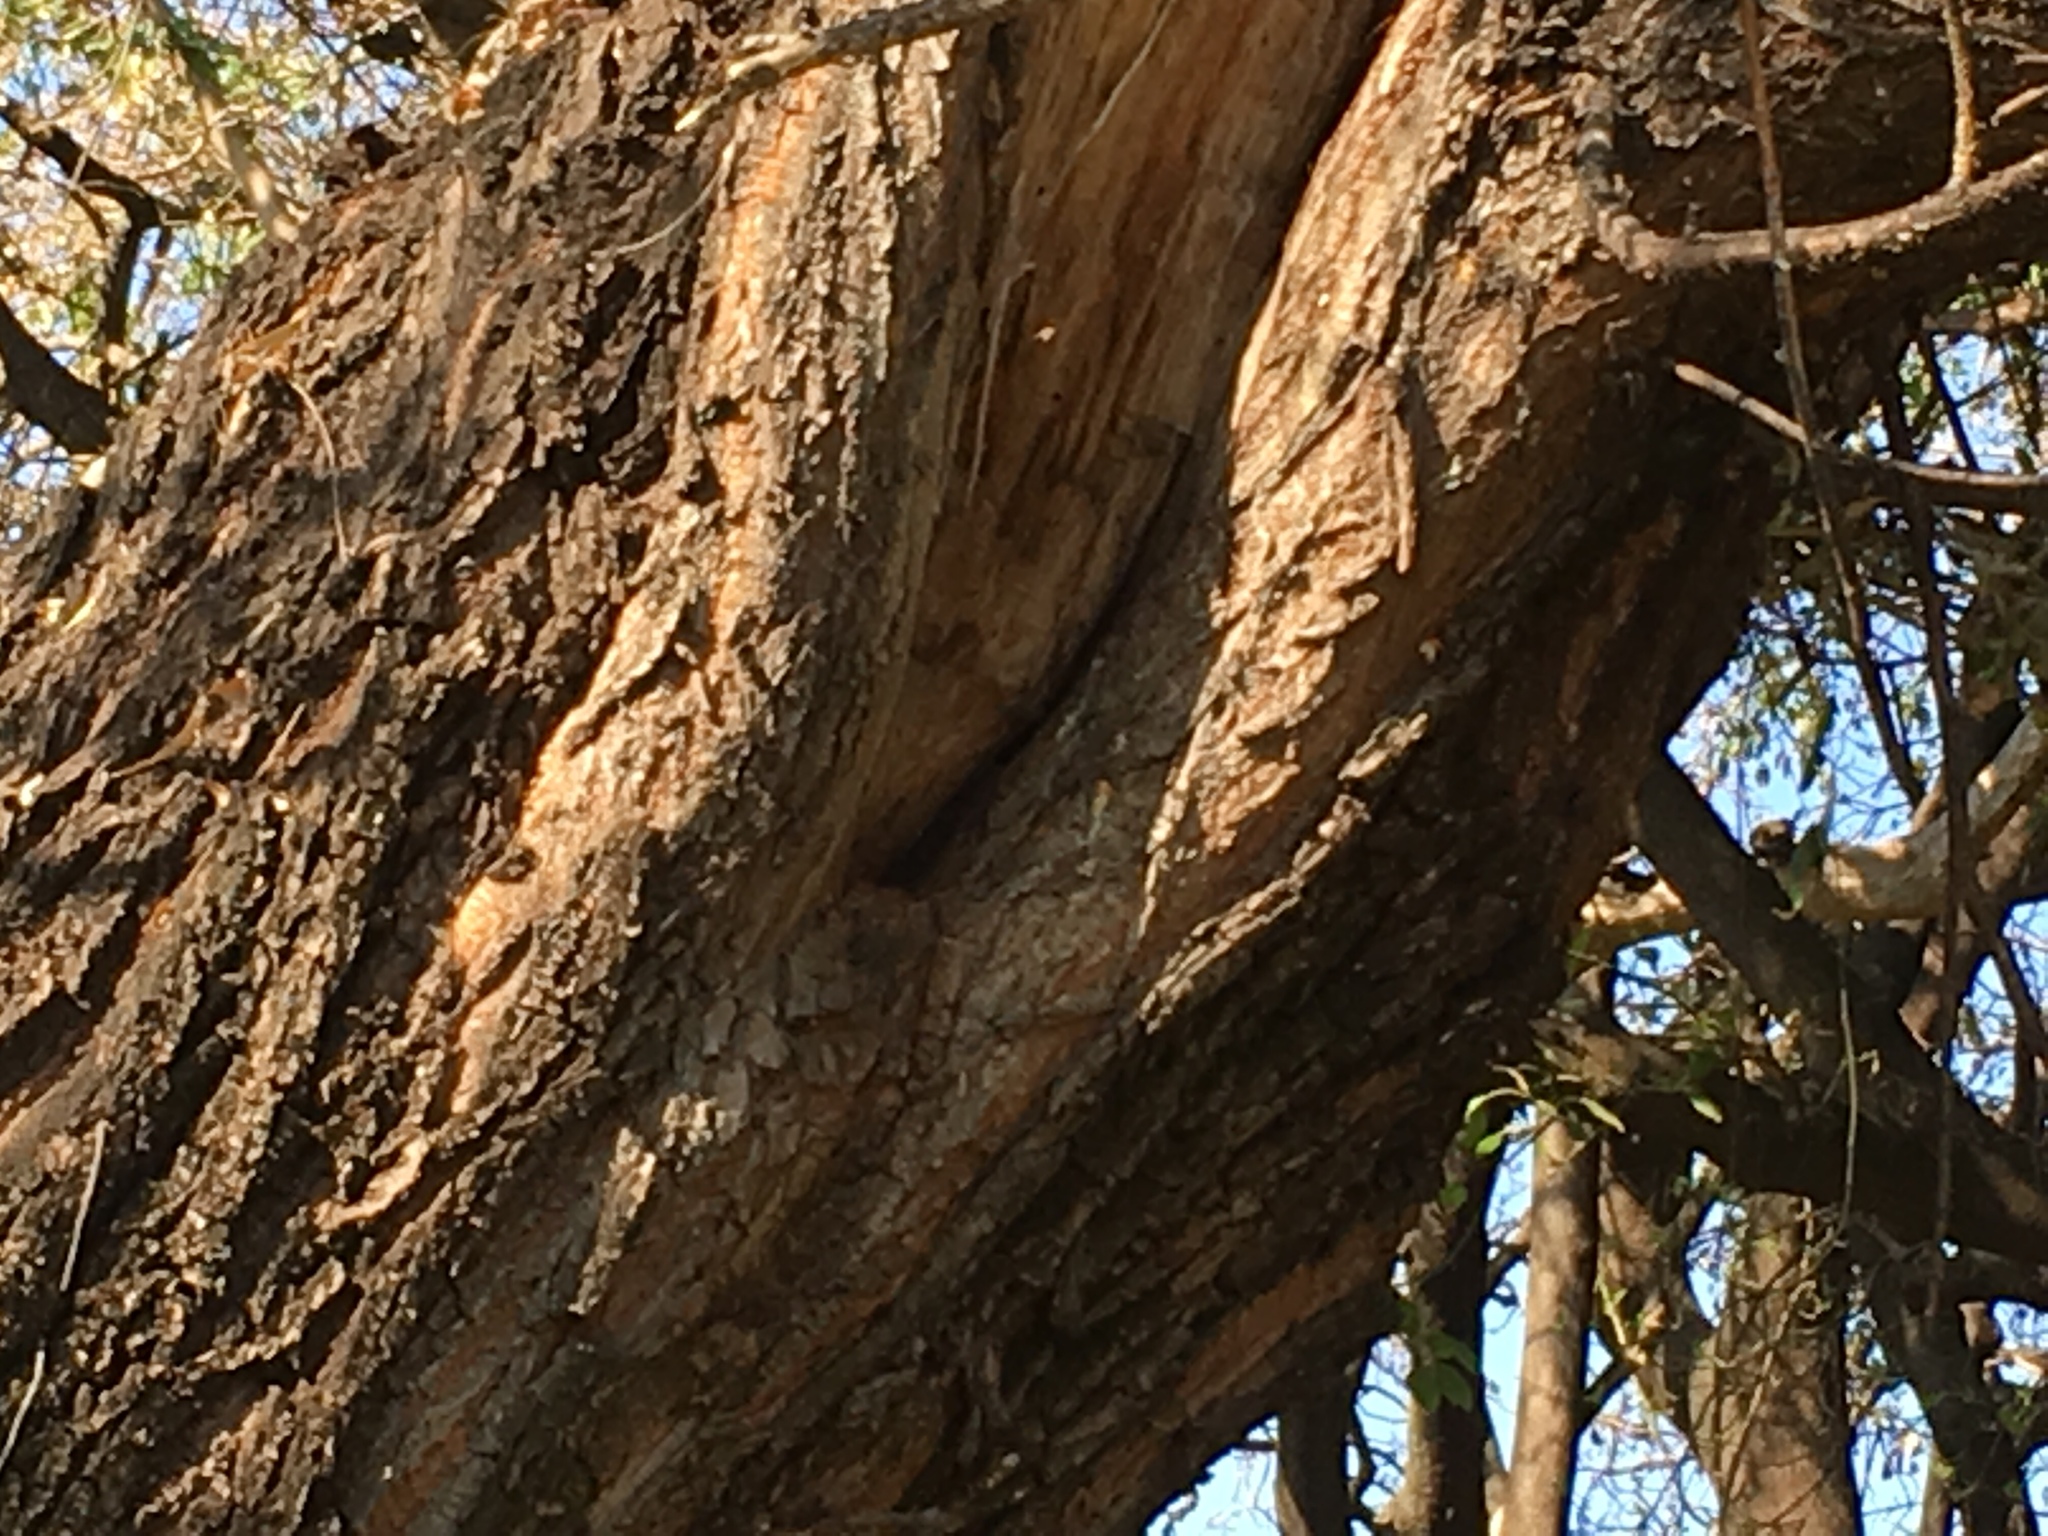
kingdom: Animalia
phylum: Arthropoda
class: Insecta
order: Hymenoptera
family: Apidae
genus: Apis
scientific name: Apis mellifera
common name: Honey bee
